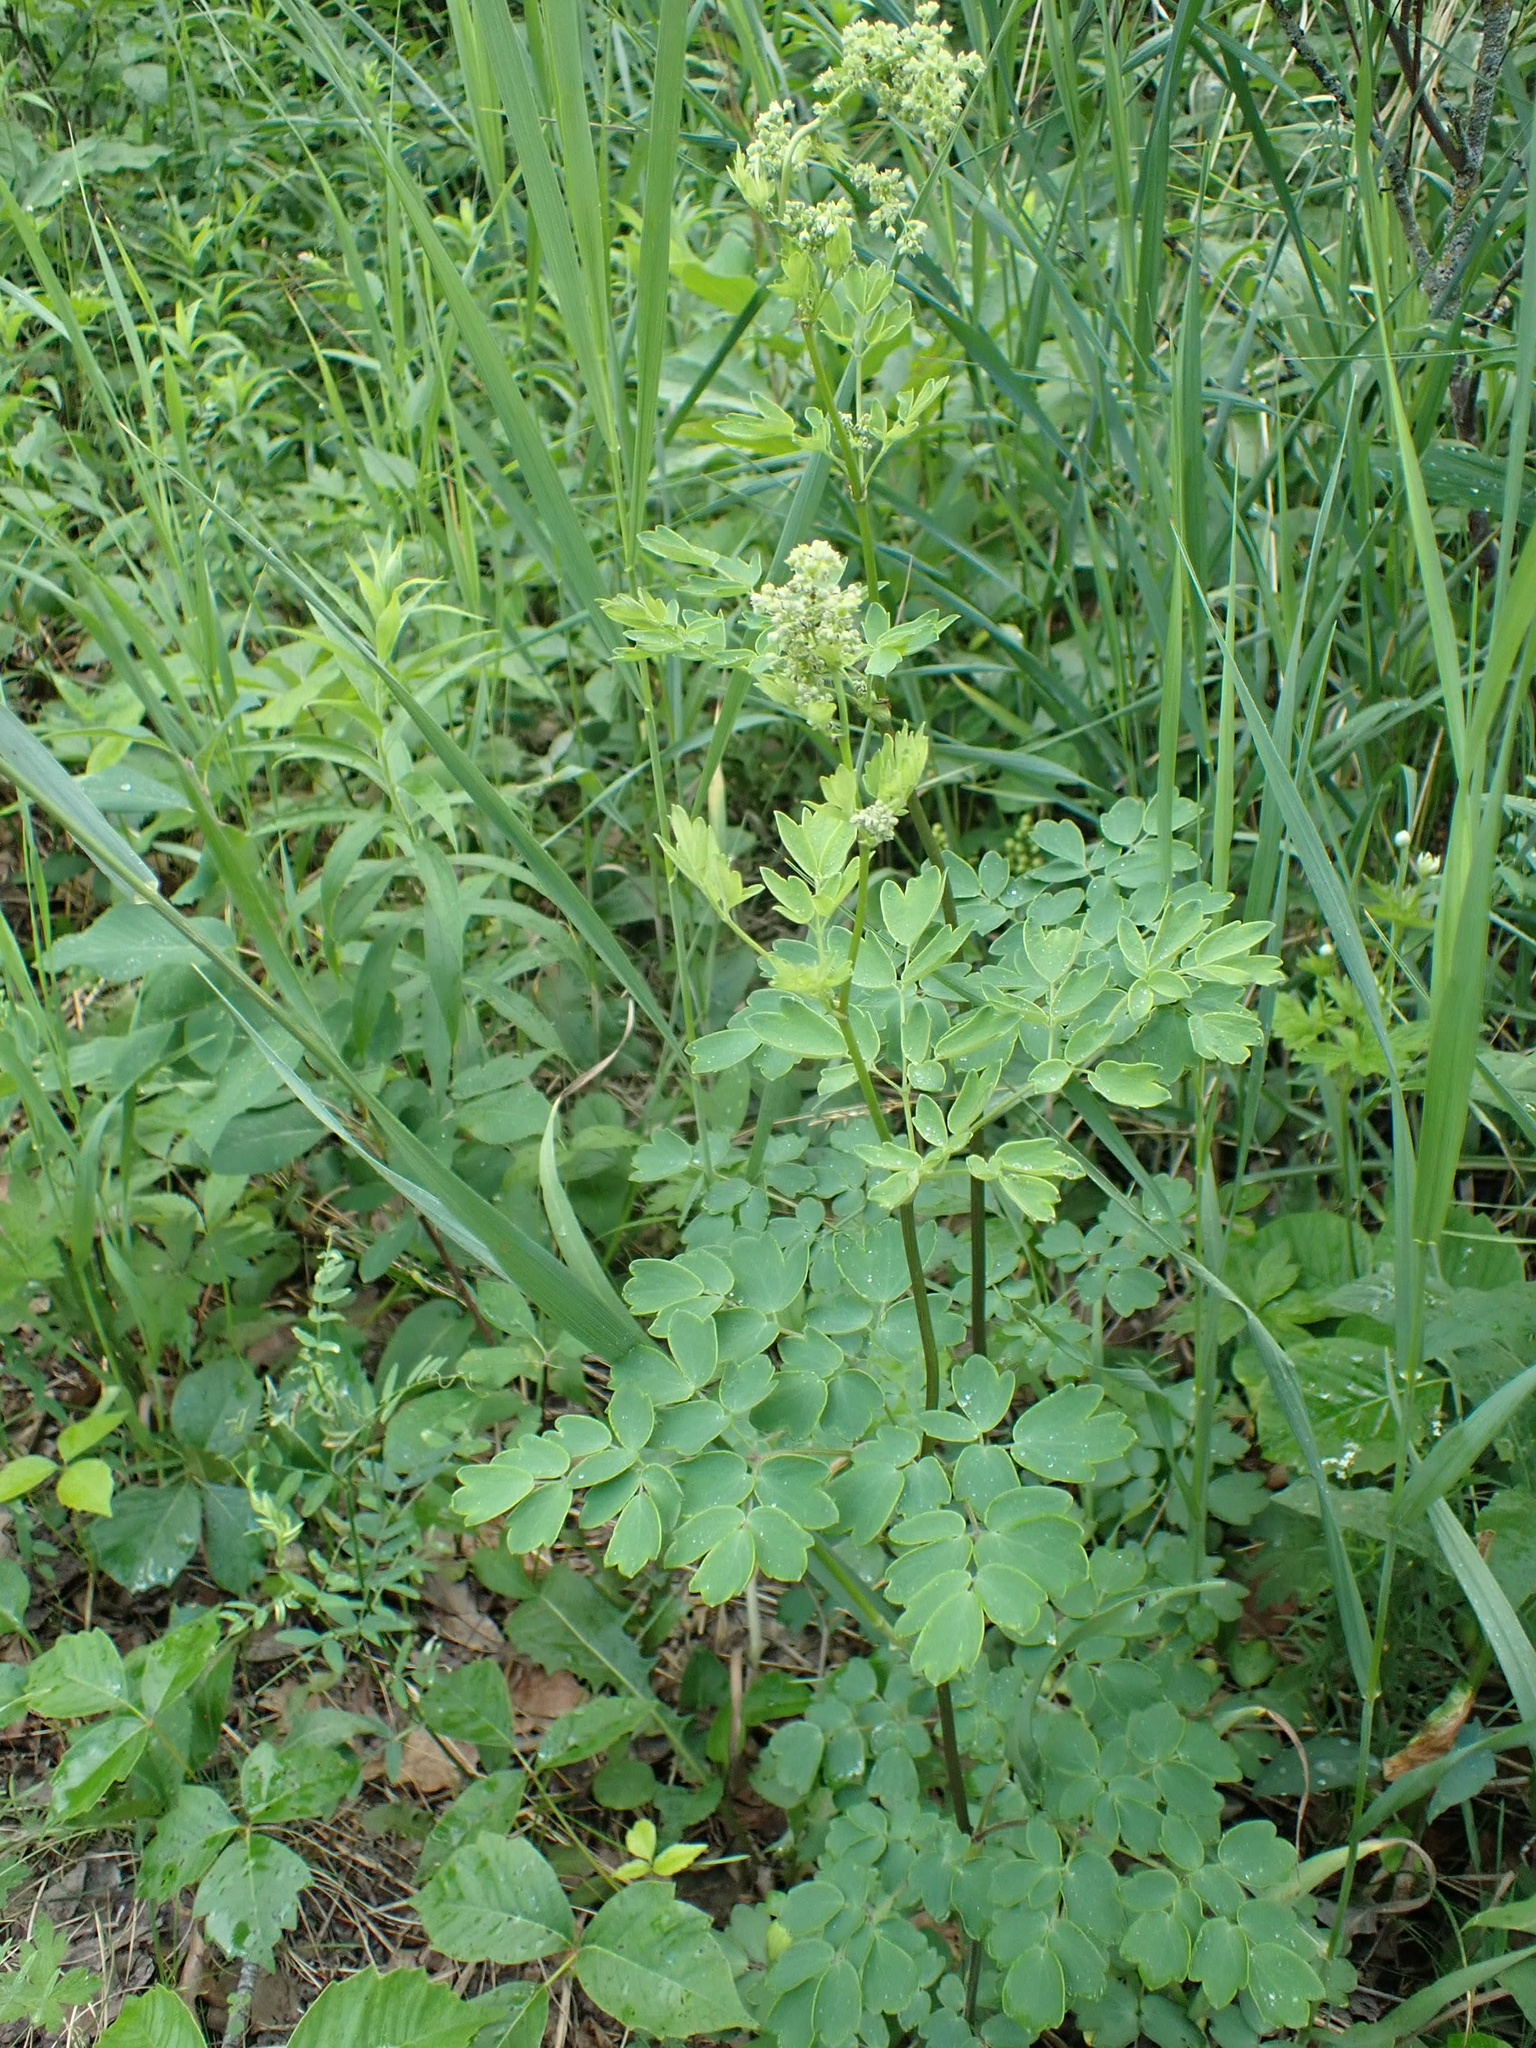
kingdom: Plantae
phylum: Tracheophyta
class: Magnoliopsida
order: Ranunculales
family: Ranunculaceae
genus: Thalictrum
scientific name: Thalictrum dasycarpum
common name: Purple meadow-rue
